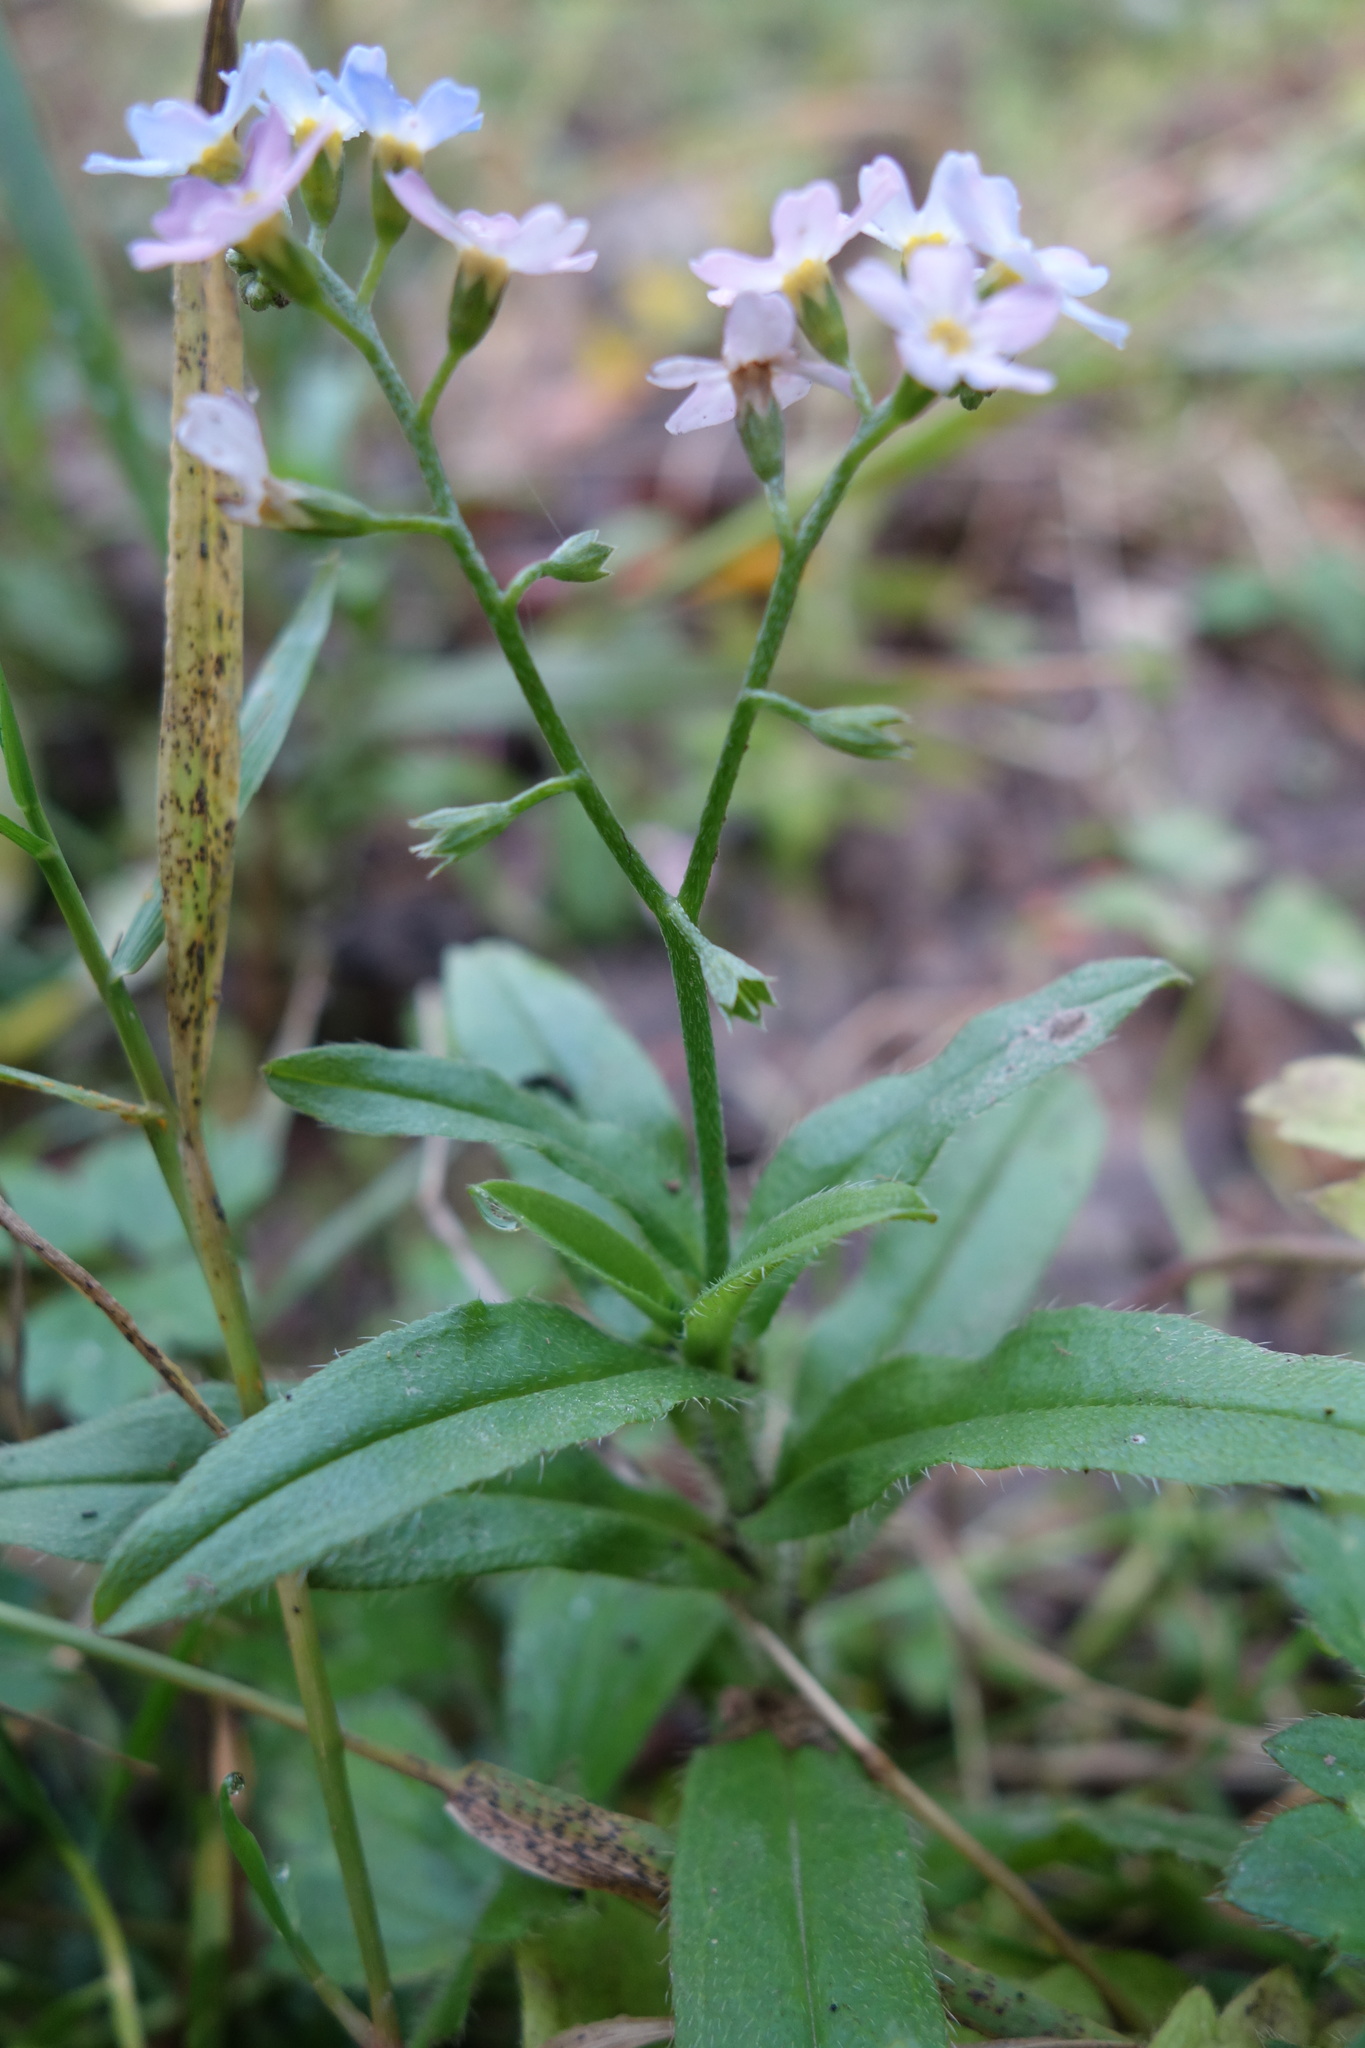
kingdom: Plantae
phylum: Tracheophyta
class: Magnoliopsida
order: Boraginales
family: Boraginaceae
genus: Myosotis
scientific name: Myosotis scorpioides
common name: Water forget-me-not
